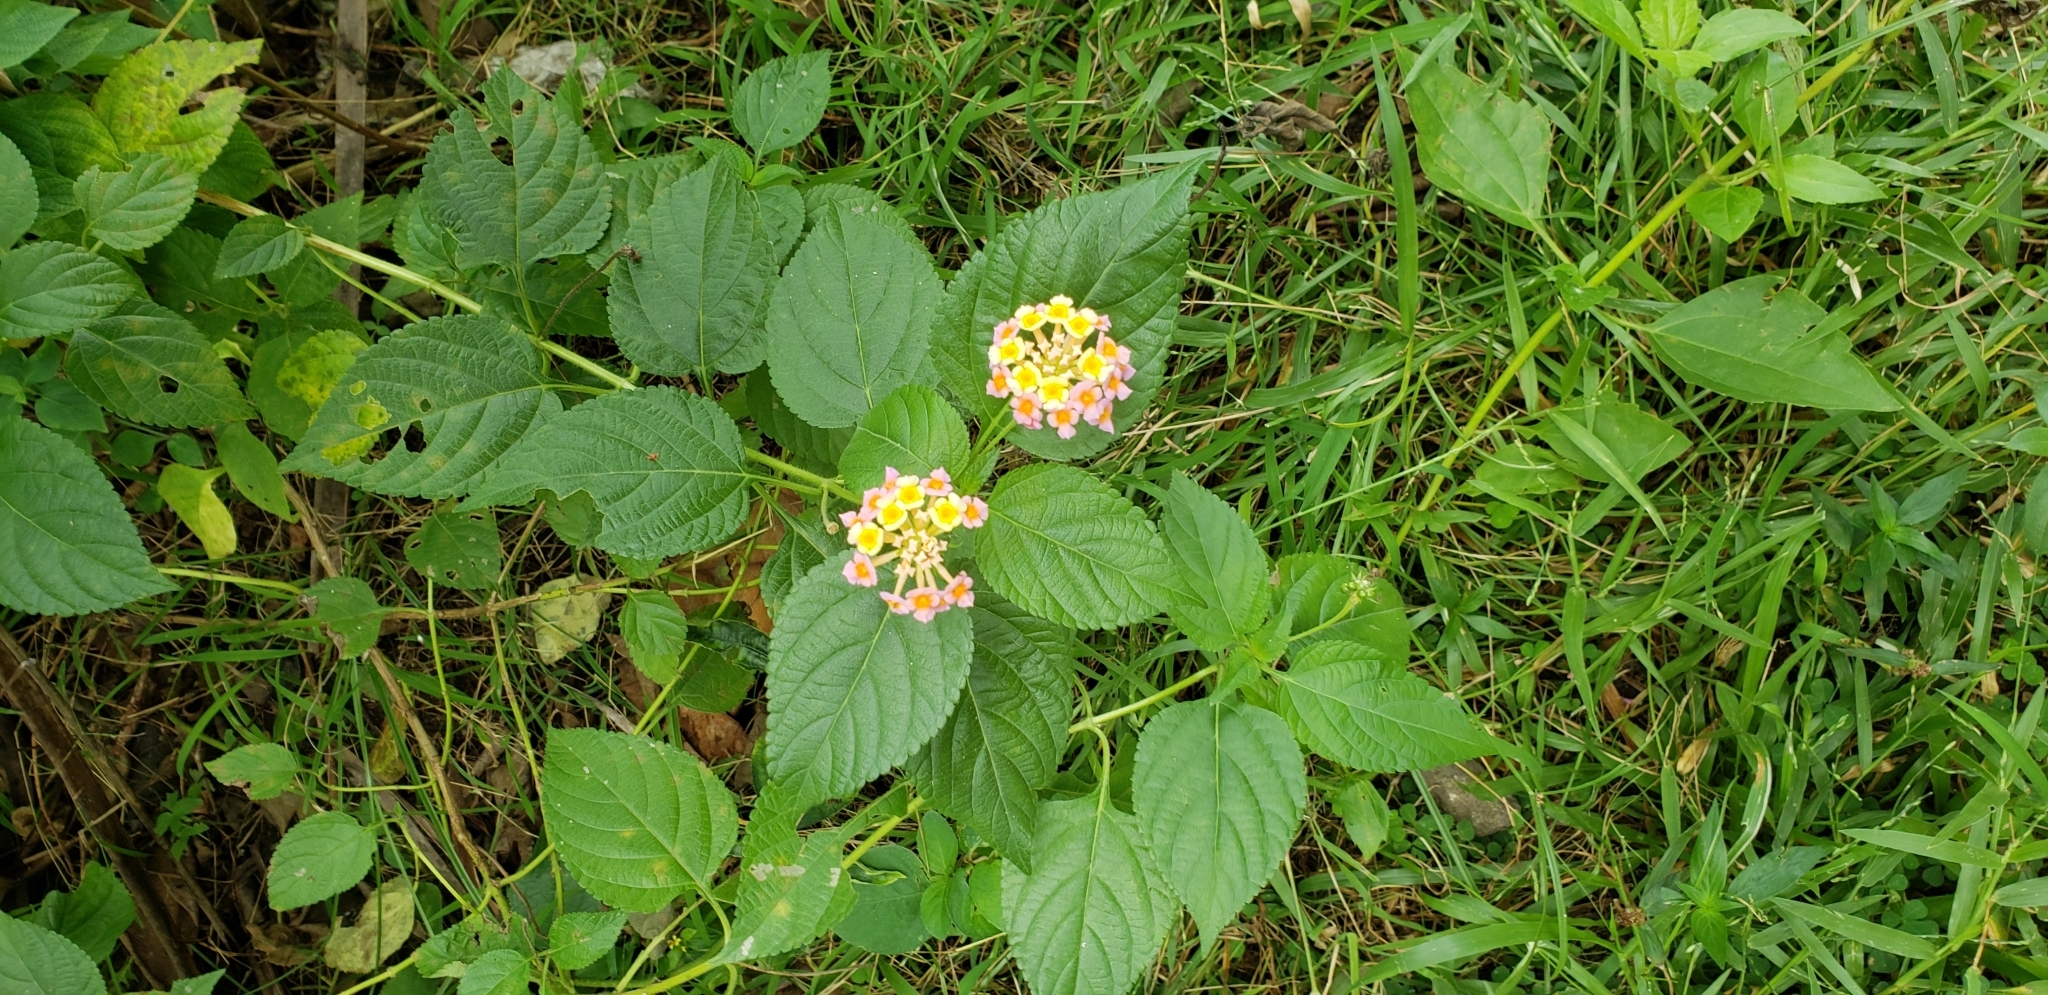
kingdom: Plantae
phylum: Tracheophyta
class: Magnoliopsida
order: Lamiales
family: Verbenaceae
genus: Lantana
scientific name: Lantana camara
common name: Lantana
